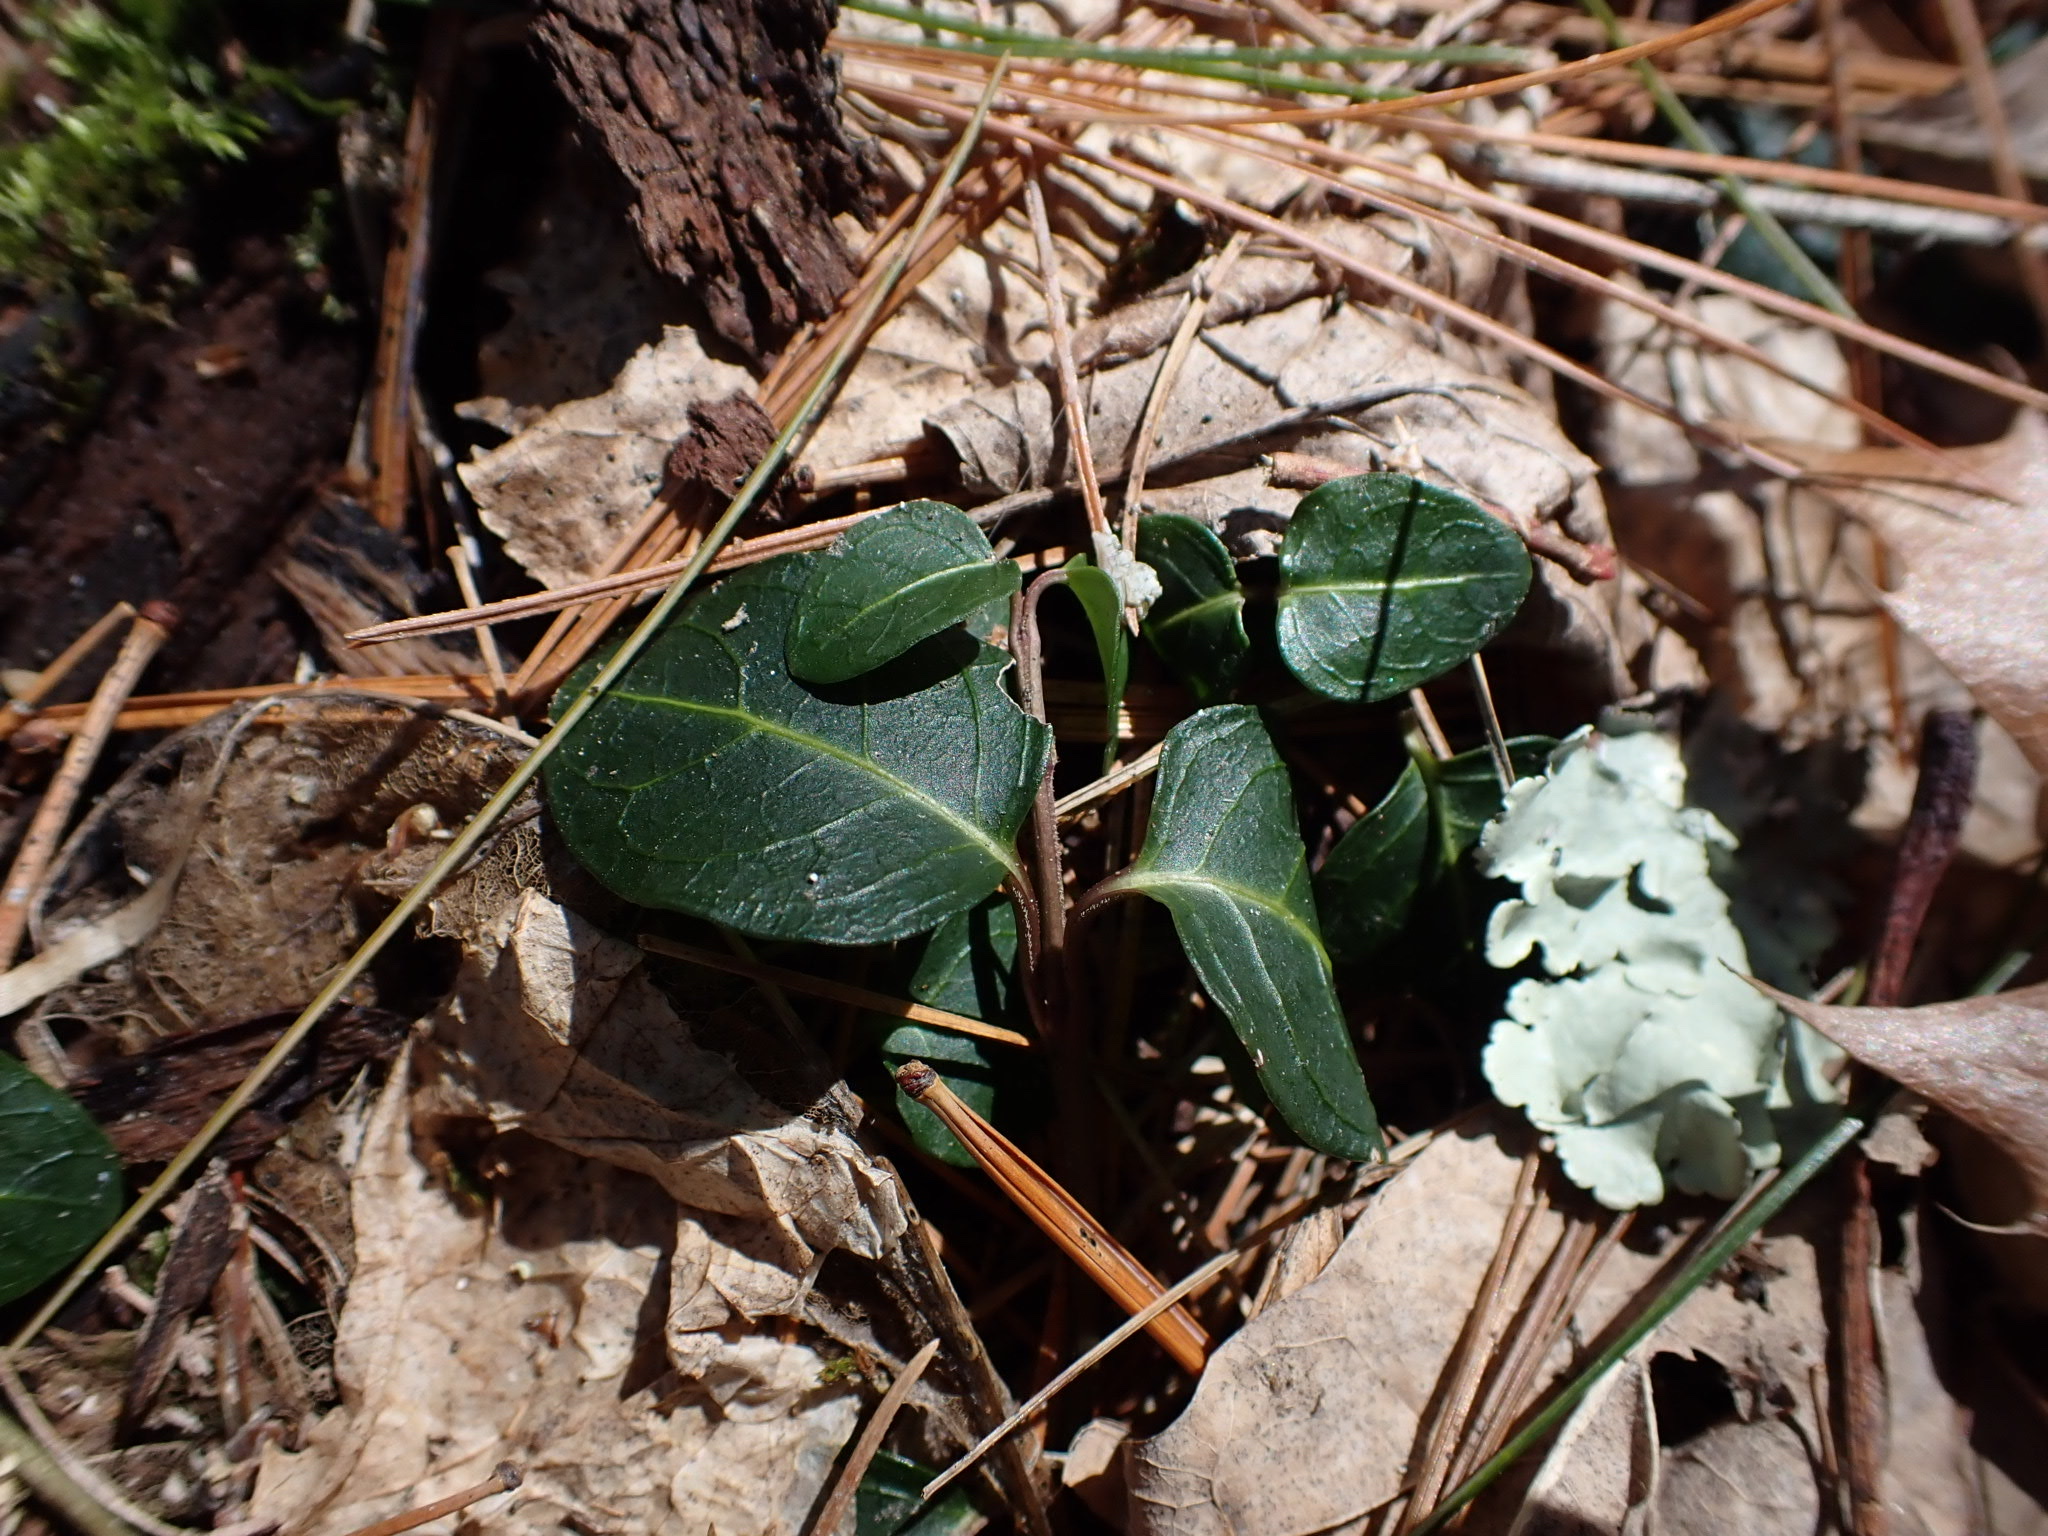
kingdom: Plantae
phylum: Tracheophyta
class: Magnoliopsida
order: Gentianales
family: Rubiaceae
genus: Mitchella
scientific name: Mitchella repens
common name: Partridge-berry
